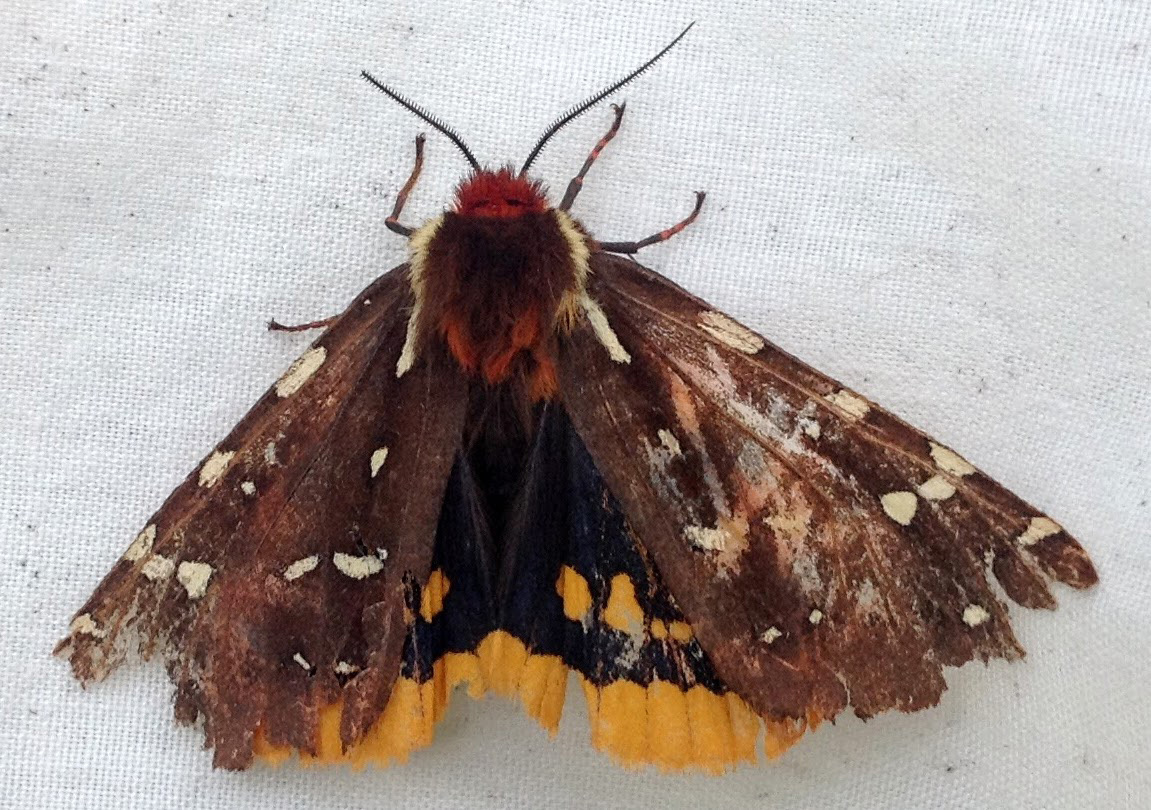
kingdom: Animalia
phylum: Arthropoda
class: Insecta
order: Lepidoptera
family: Erebidae
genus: Arctia
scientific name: Arctia parthenos
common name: St. lawrence tiger moth
